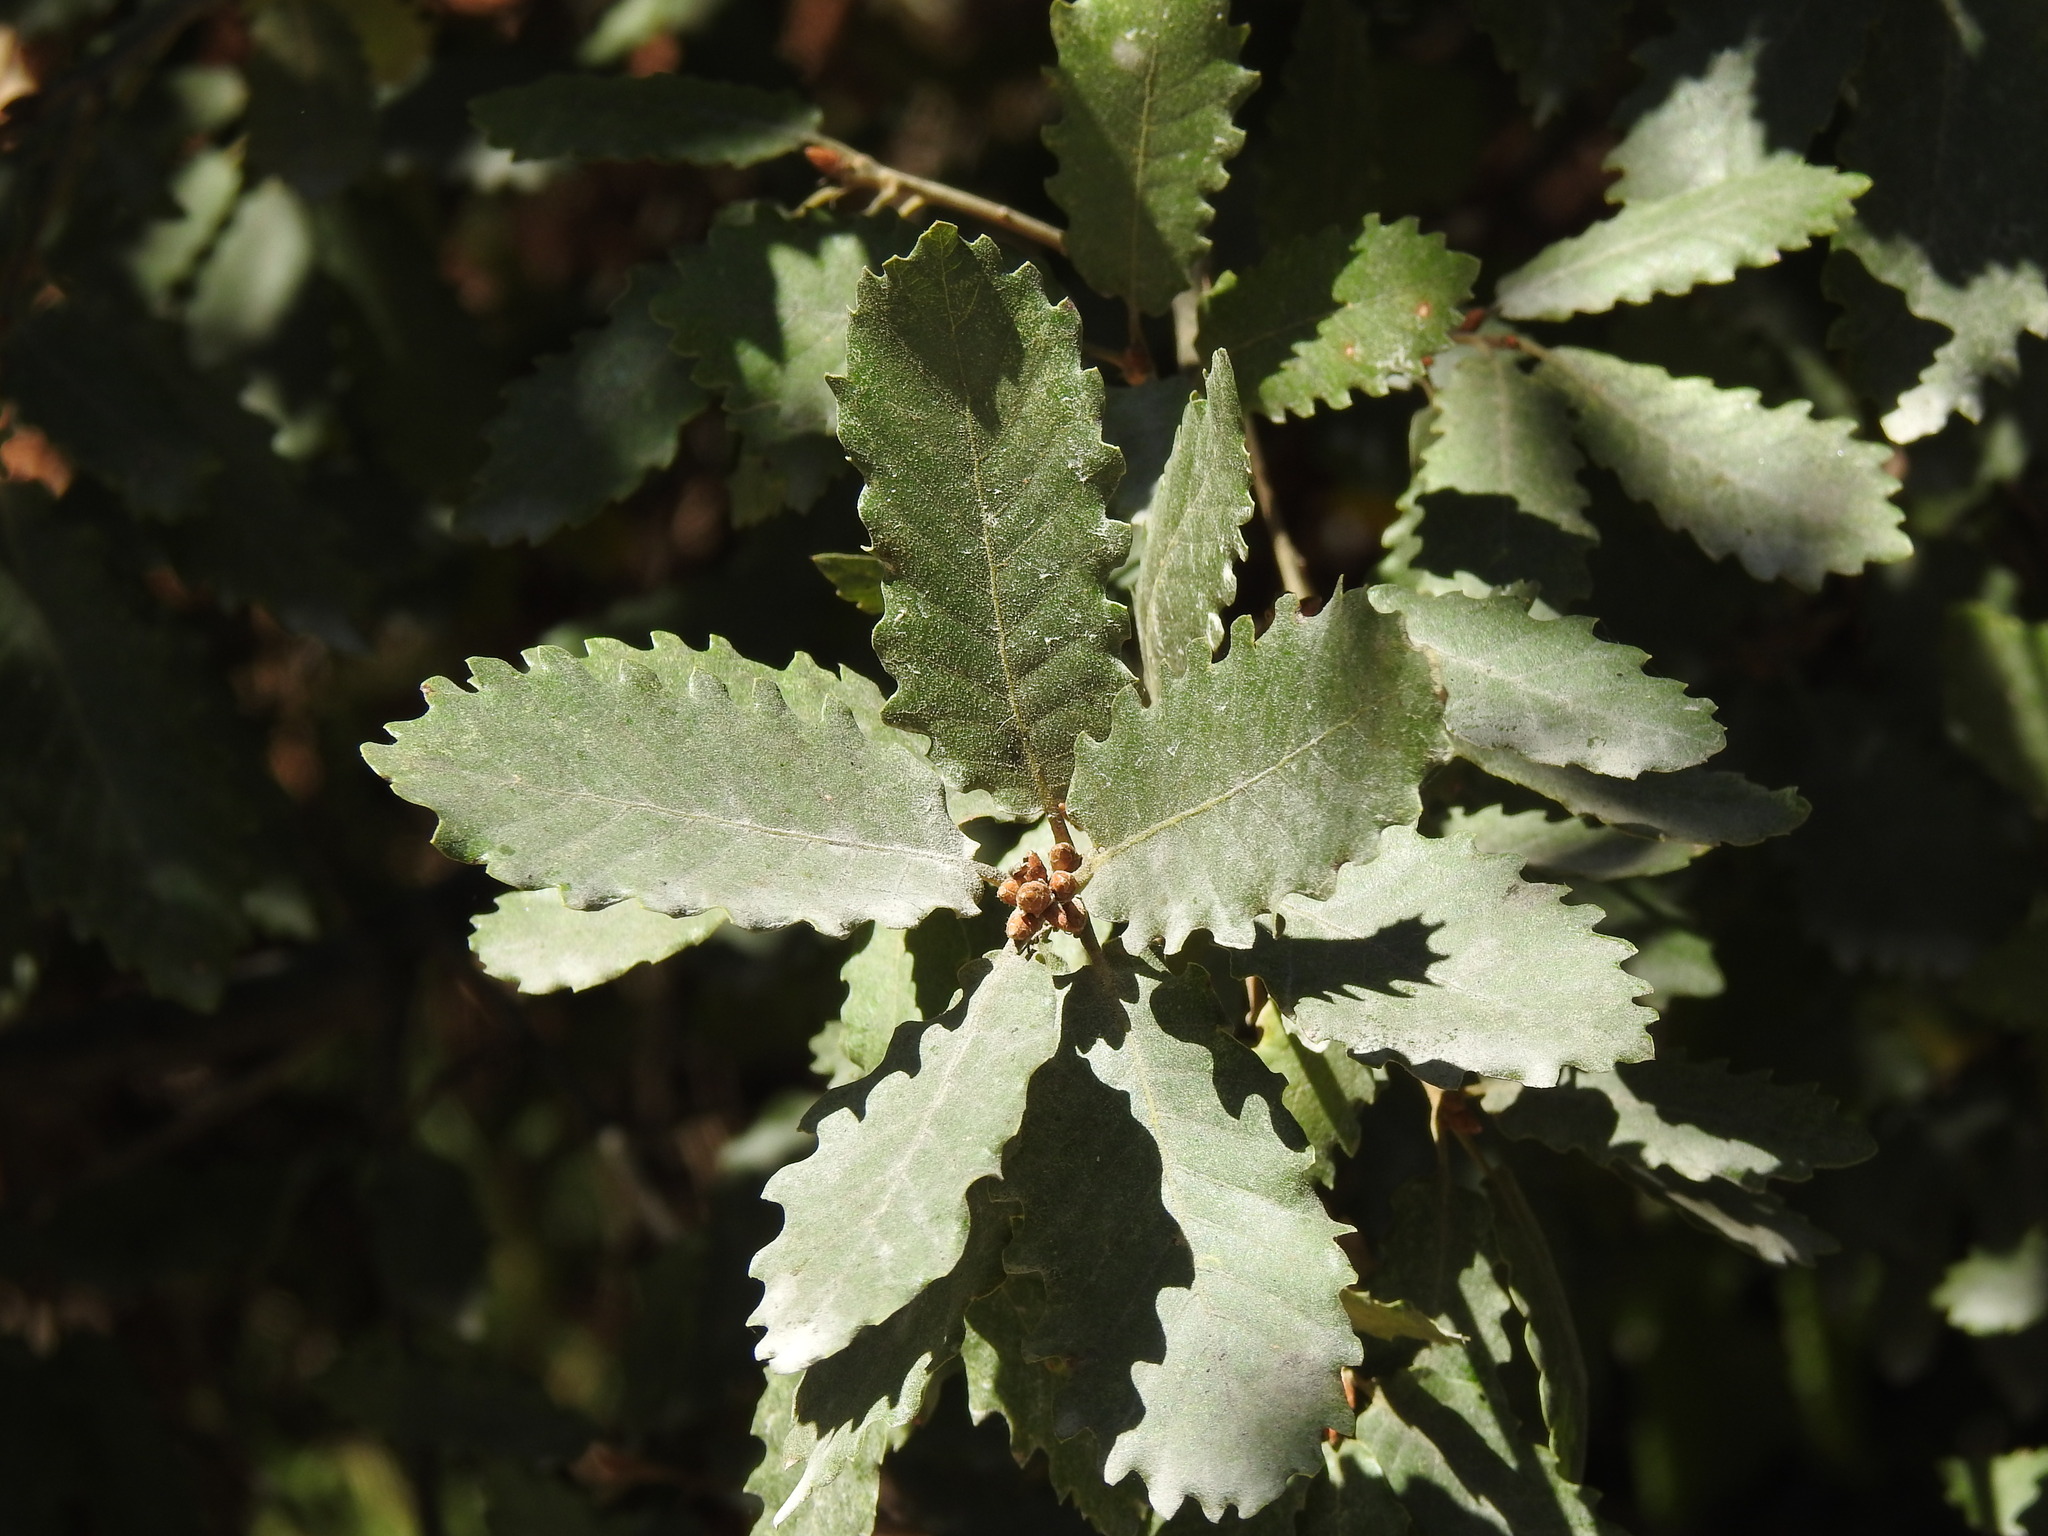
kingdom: Plantae
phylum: Tracheophyta
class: Magnoliopsida
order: Fagales
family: Fagaceae
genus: Quercus
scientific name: Quercus faginea
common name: Gall oak tree
